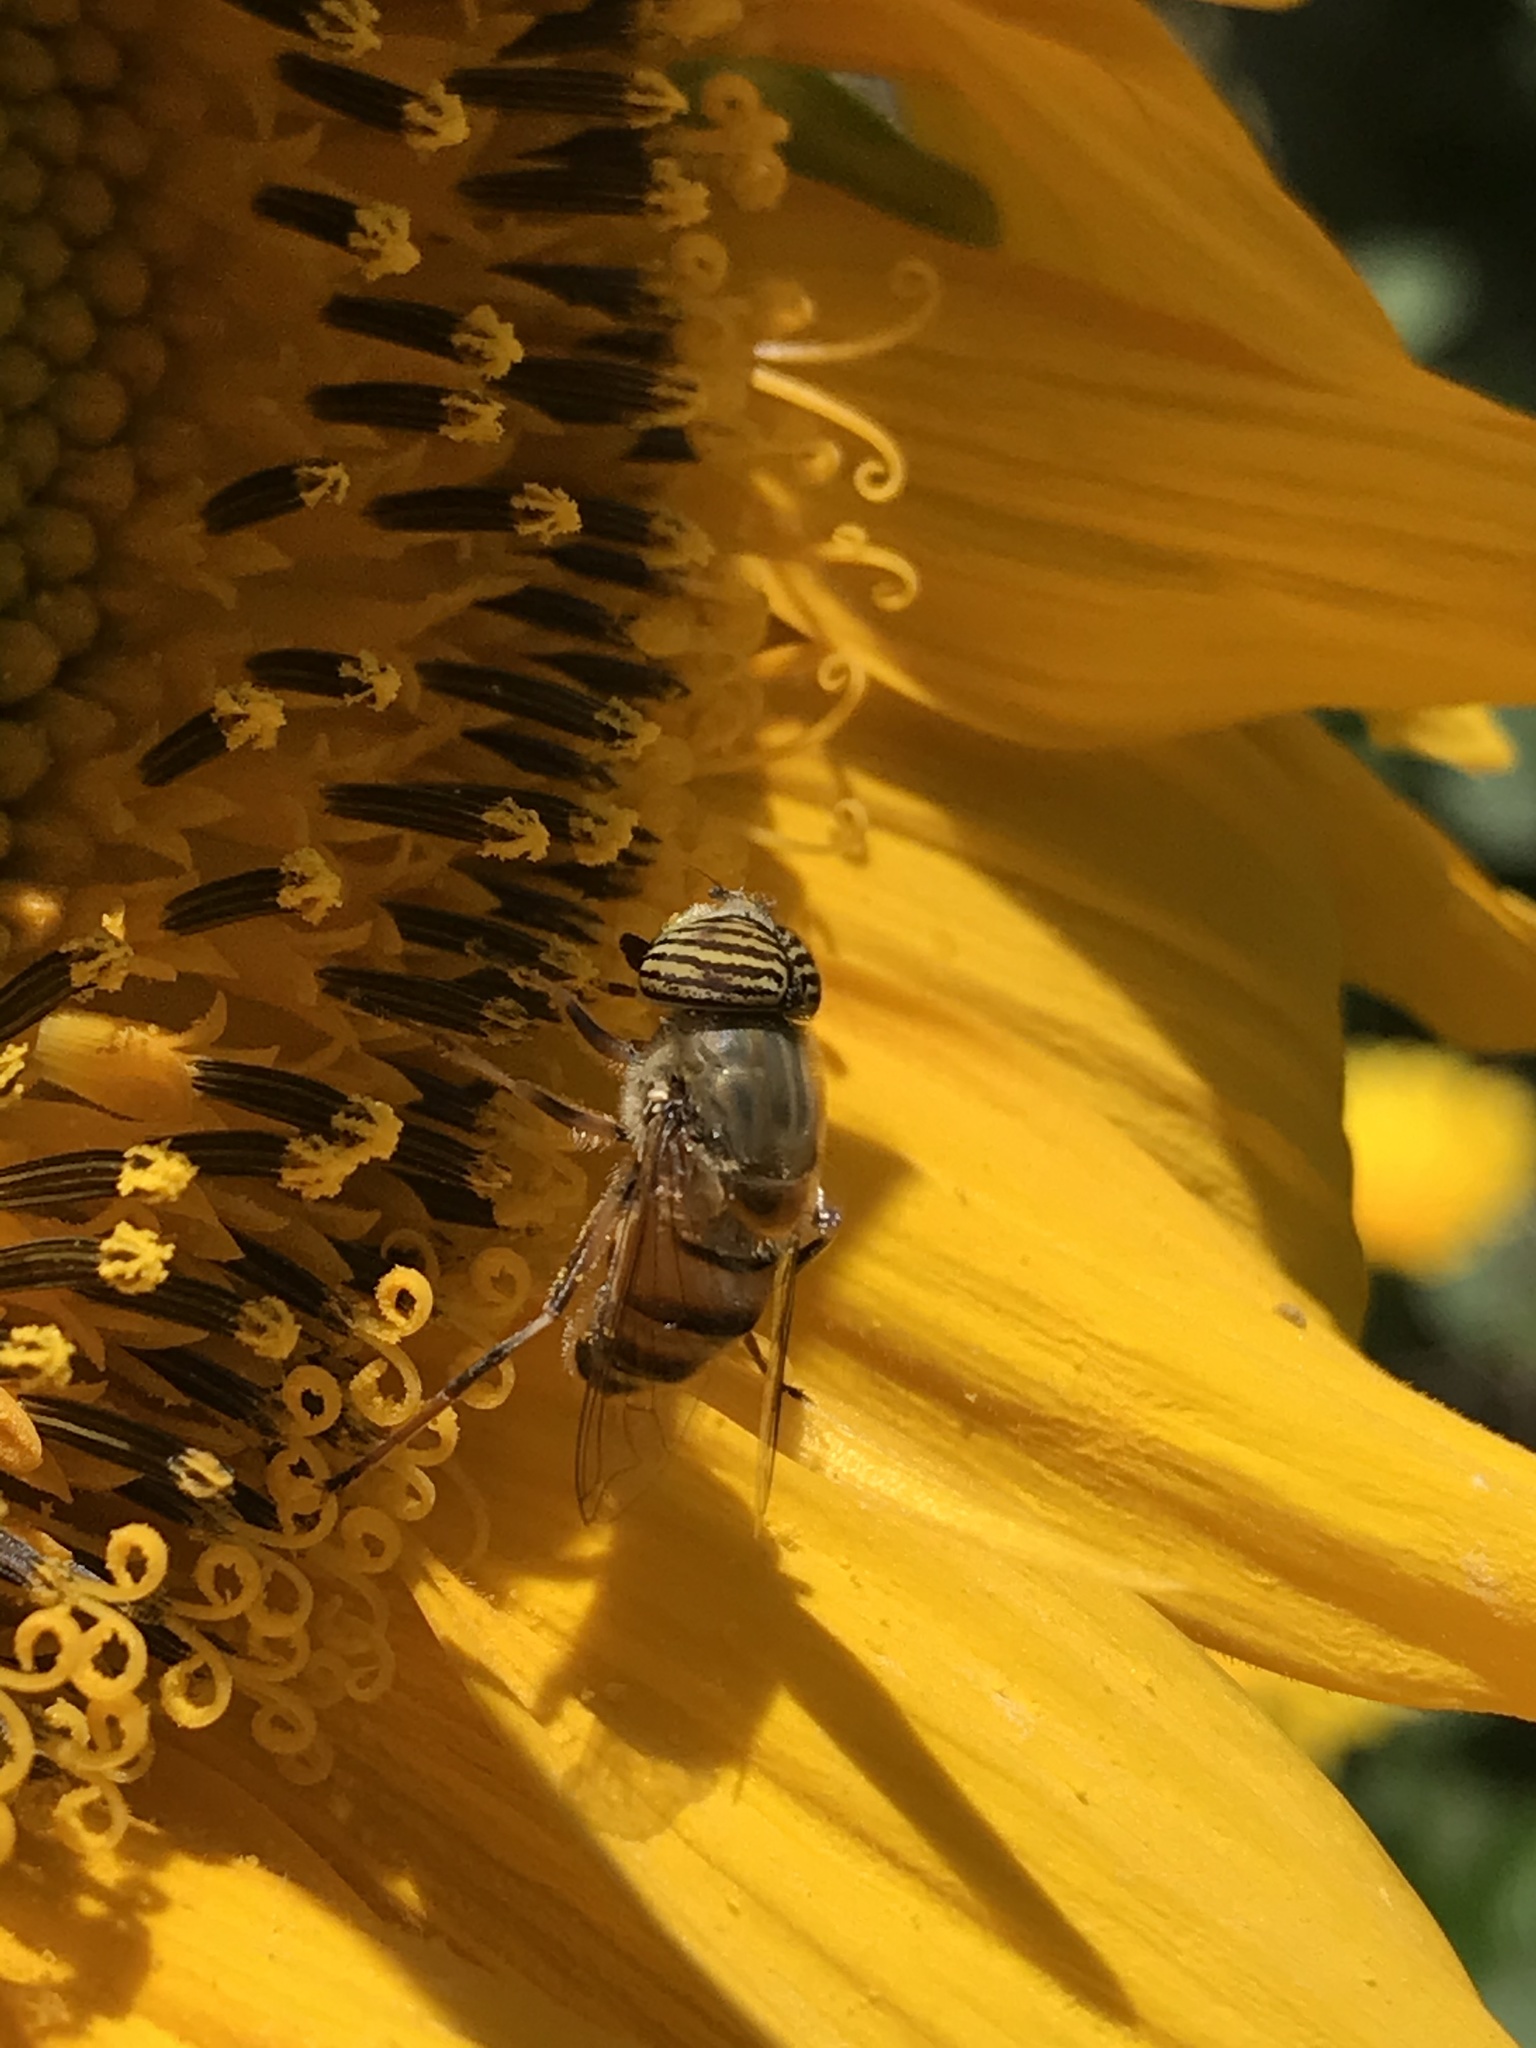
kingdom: Animalia
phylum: Arthropoda
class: Insecta
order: Diptera
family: Syrphidae
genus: Eristalinus
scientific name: Eristalinus taeniops
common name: Syrphid fly
